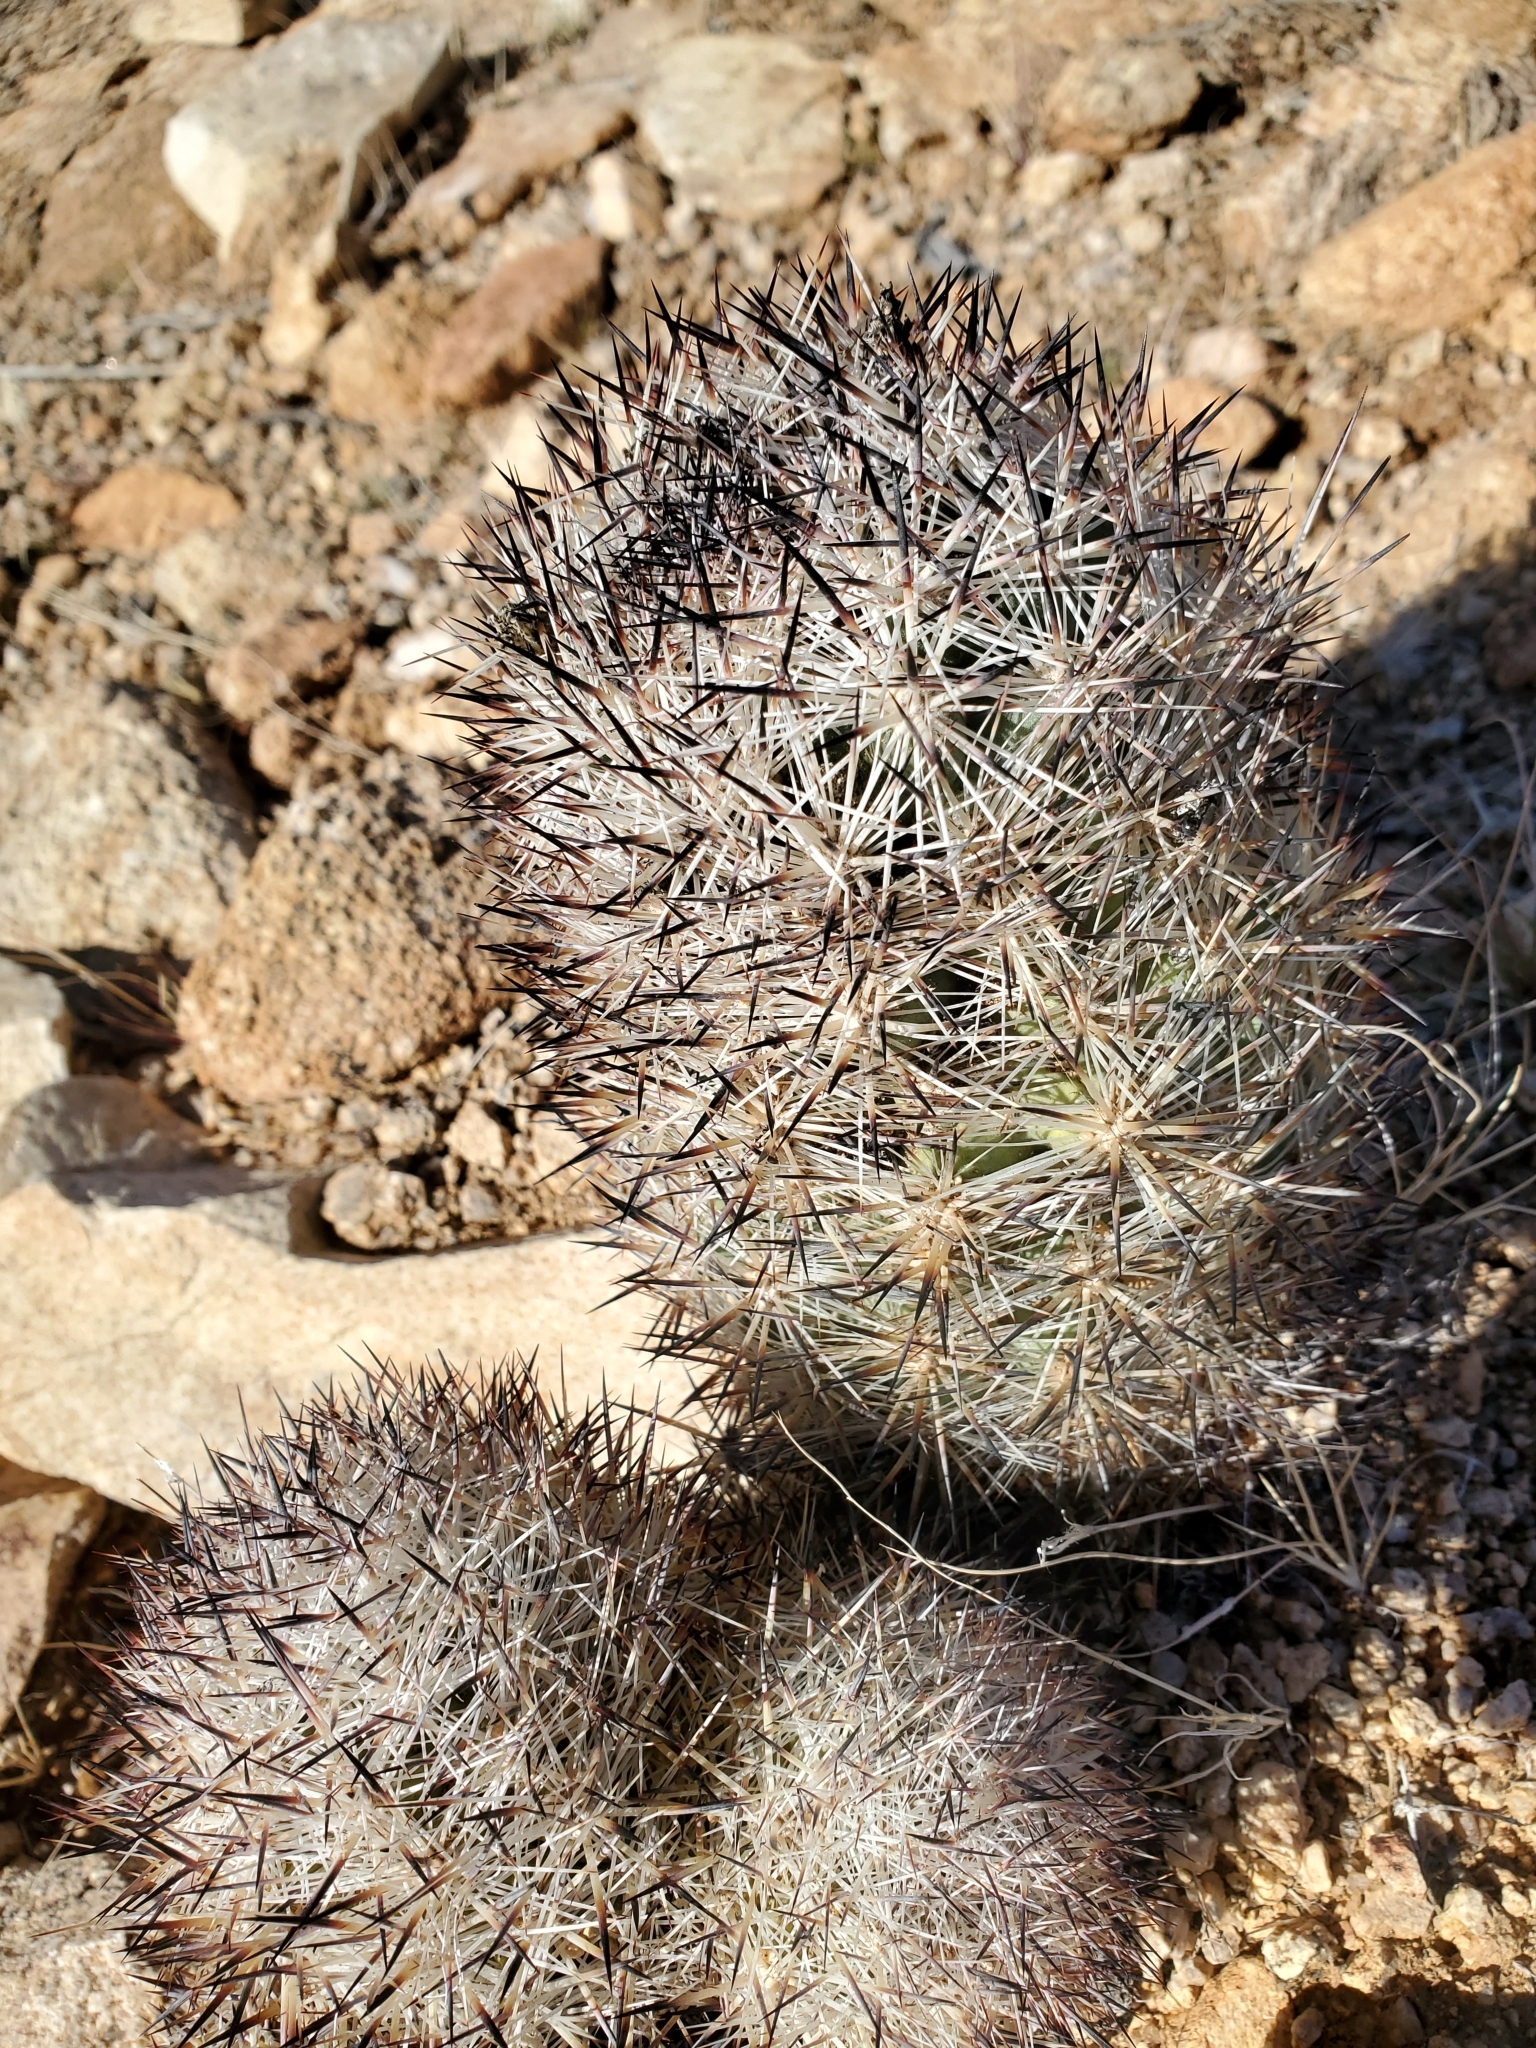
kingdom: Plantae
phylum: Tracheophyta
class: Magnoliopsida
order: Caryophyllales
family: Cactaceae
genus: Pelecyphora
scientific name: Pelecyphora alversonii
